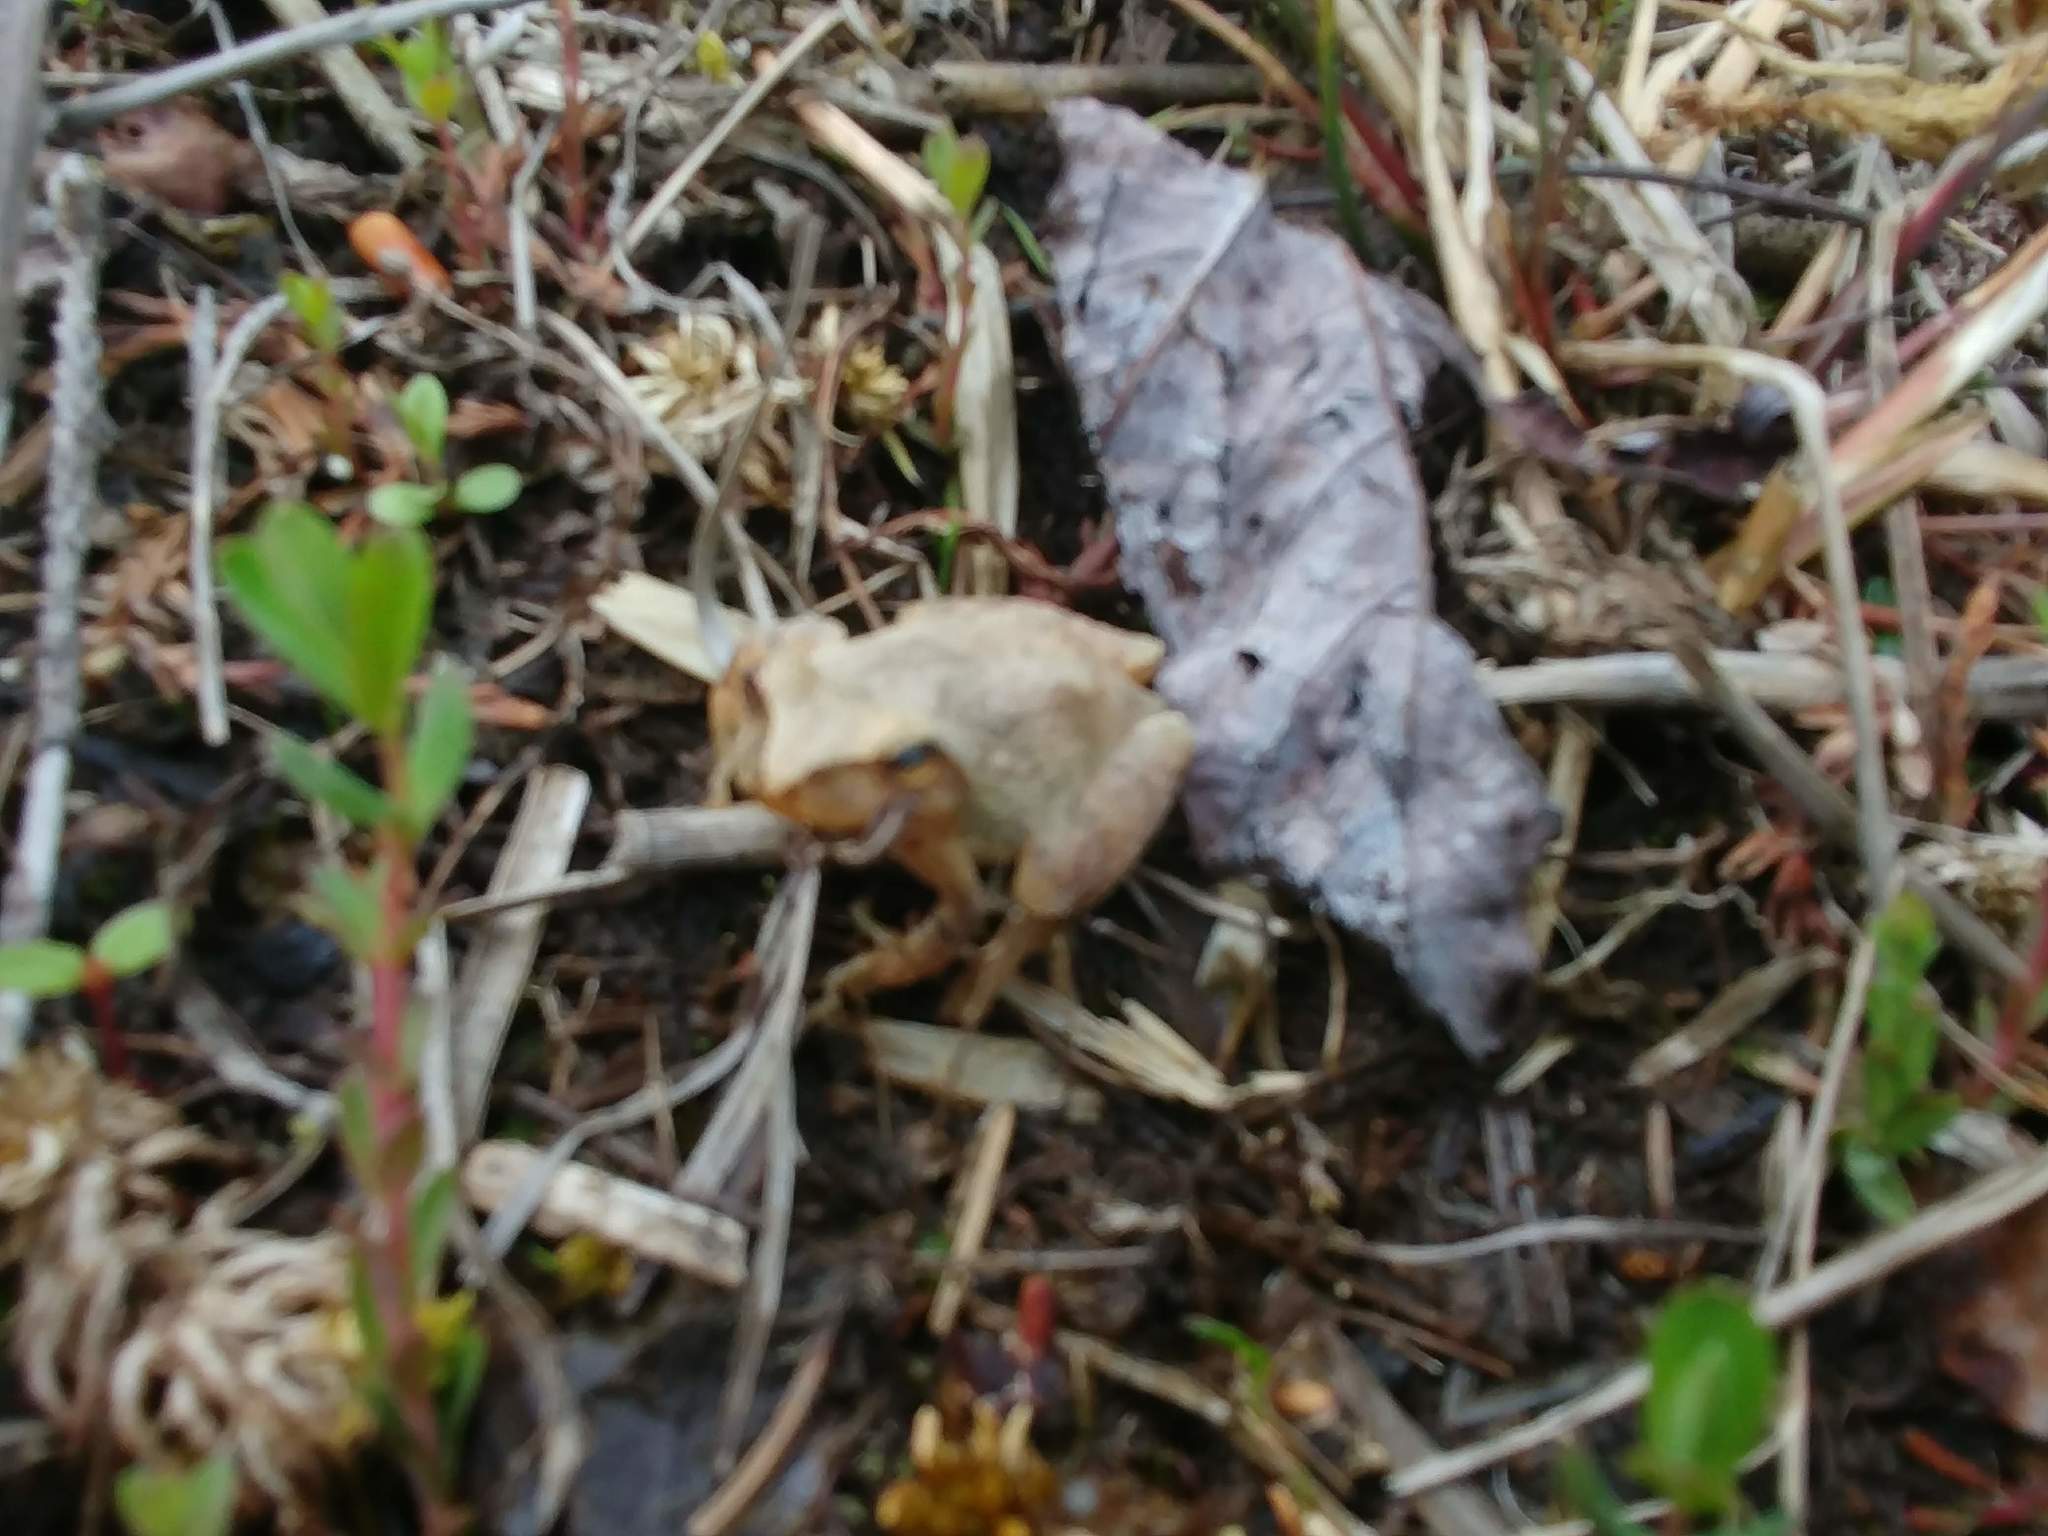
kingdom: Animalia
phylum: Chordata
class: Amphibia
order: Anura
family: Hylidae
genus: Pseudacris
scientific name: Pseudacris crucifer
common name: Spring peeper
